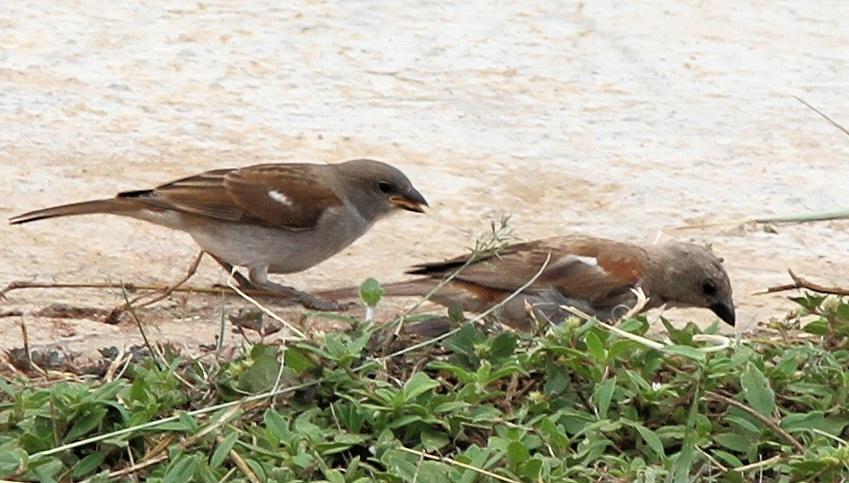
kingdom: Animalia
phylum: Chordata
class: Aves
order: Passeriformes
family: Passeridae
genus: Passer
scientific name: Passer diffusus
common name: Southern grey-headed sparrow
